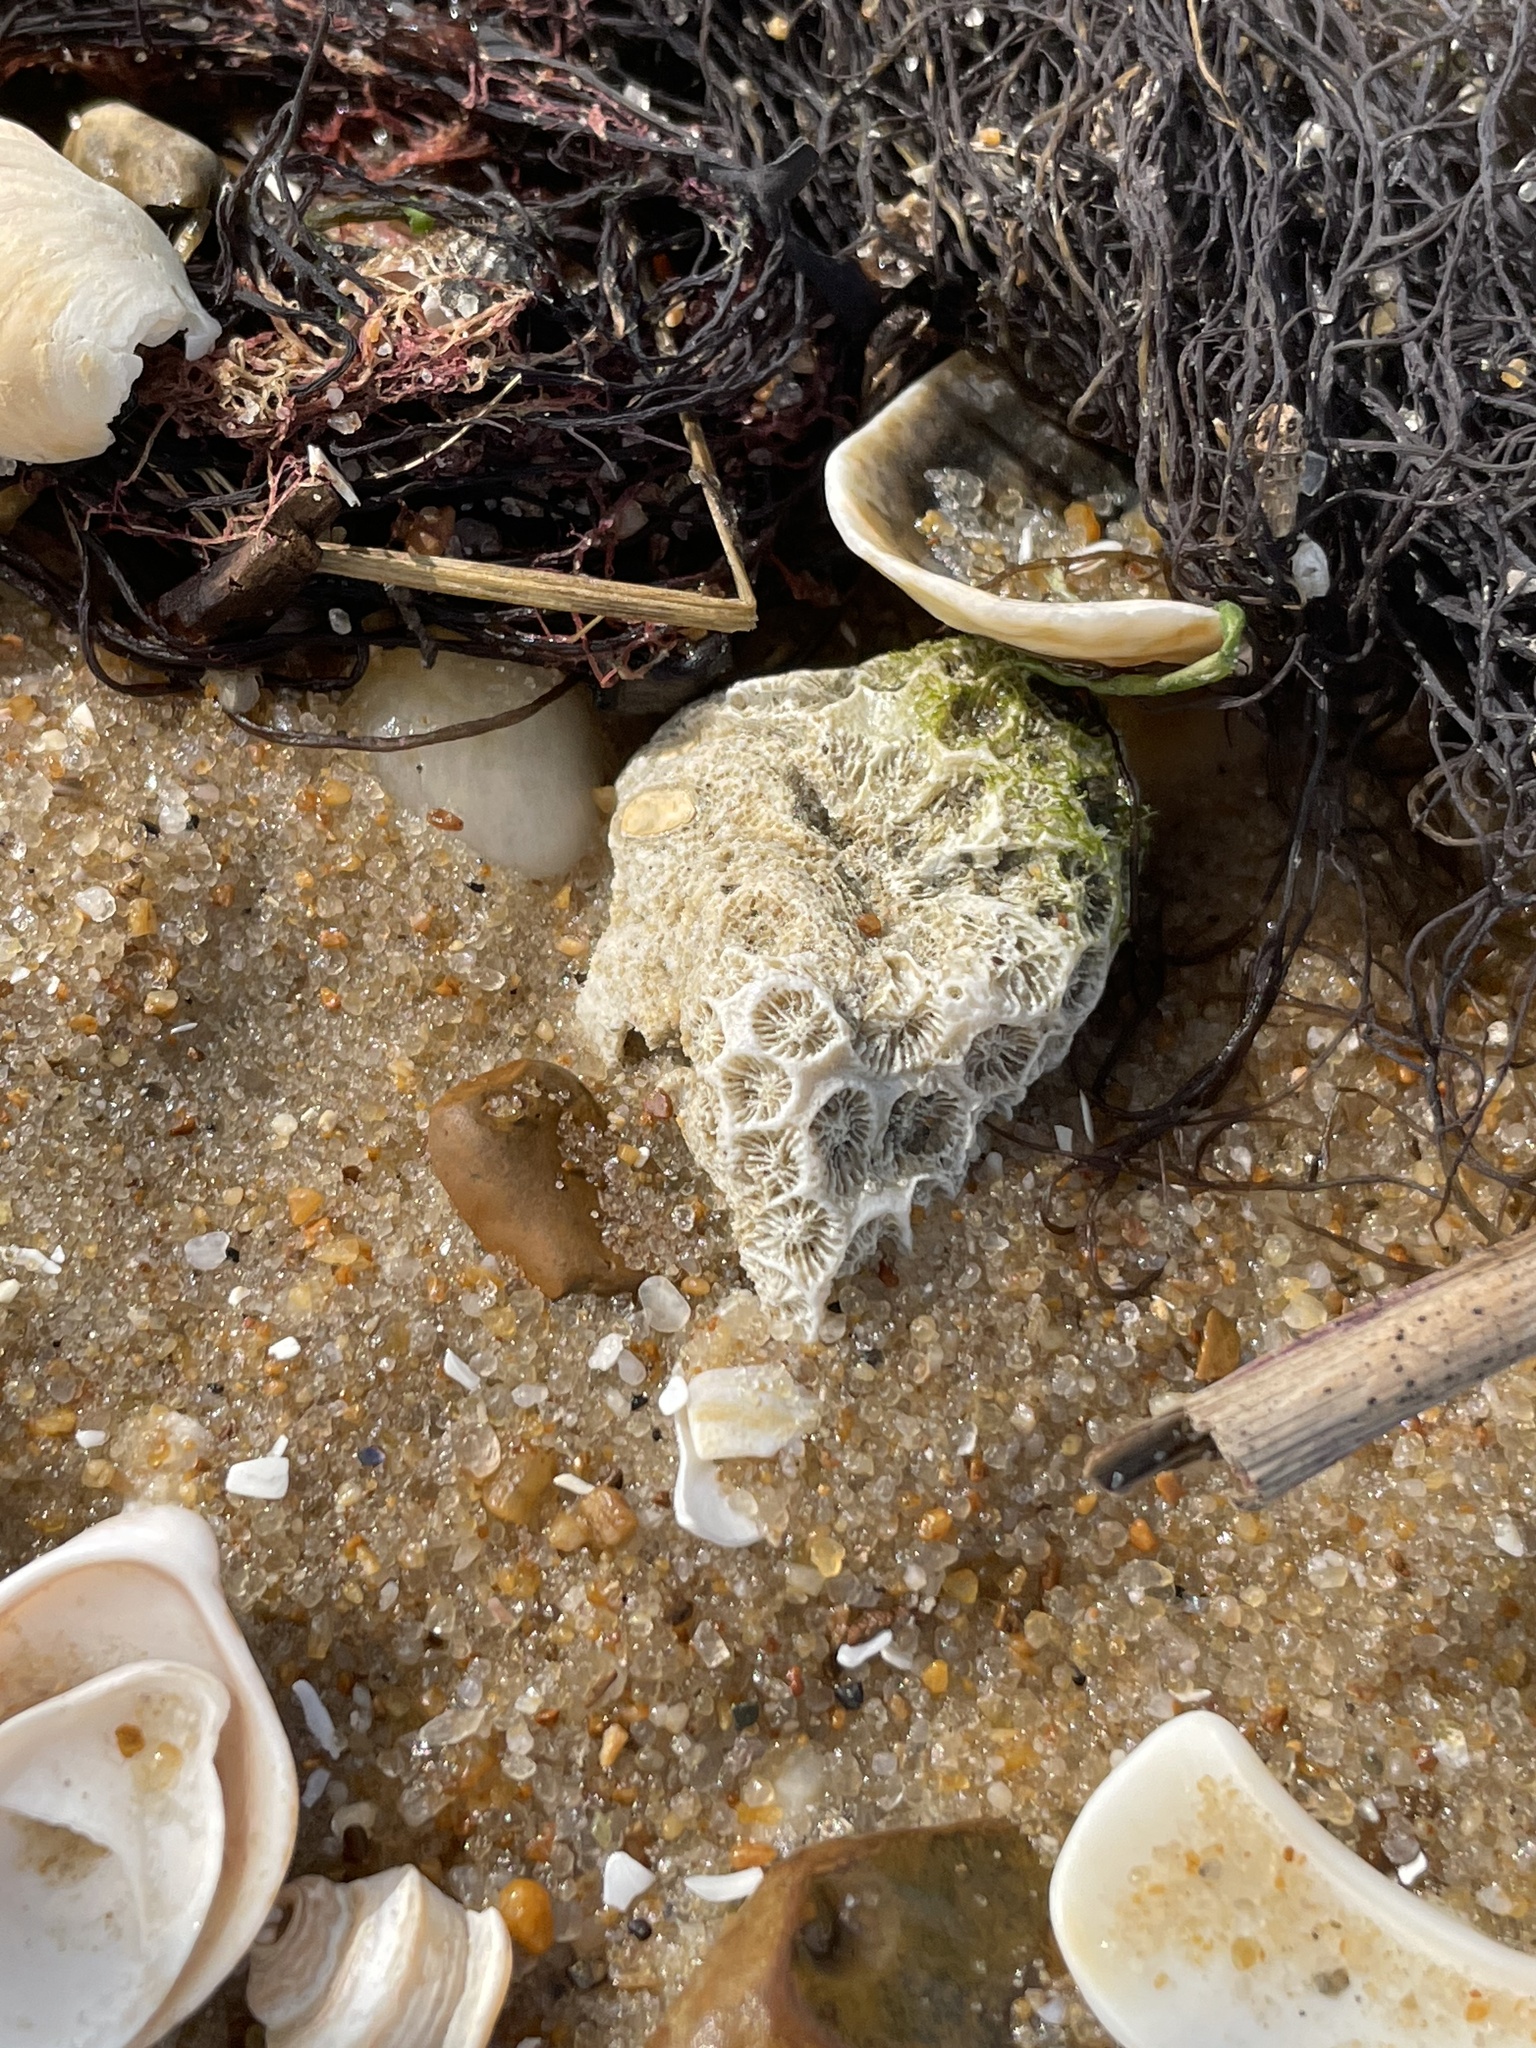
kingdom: Animalia
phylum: Cnidaria
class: Anthozoa
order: Scleractinia
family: Astrangiidae
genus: Astrangia
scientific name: Astrangia poculata
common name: Northern star coral
